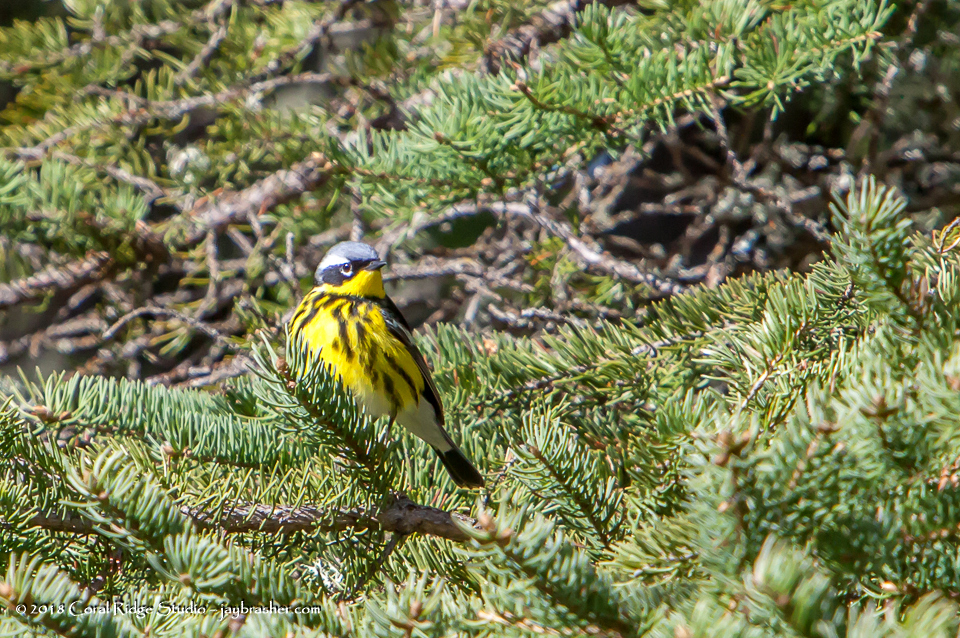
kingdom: Animalia
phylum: Chordata
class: Aves
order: Passeriformes
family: Parulidae
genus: Setophaga
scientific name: Setophaga magnolia
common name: Magnolia warbler
